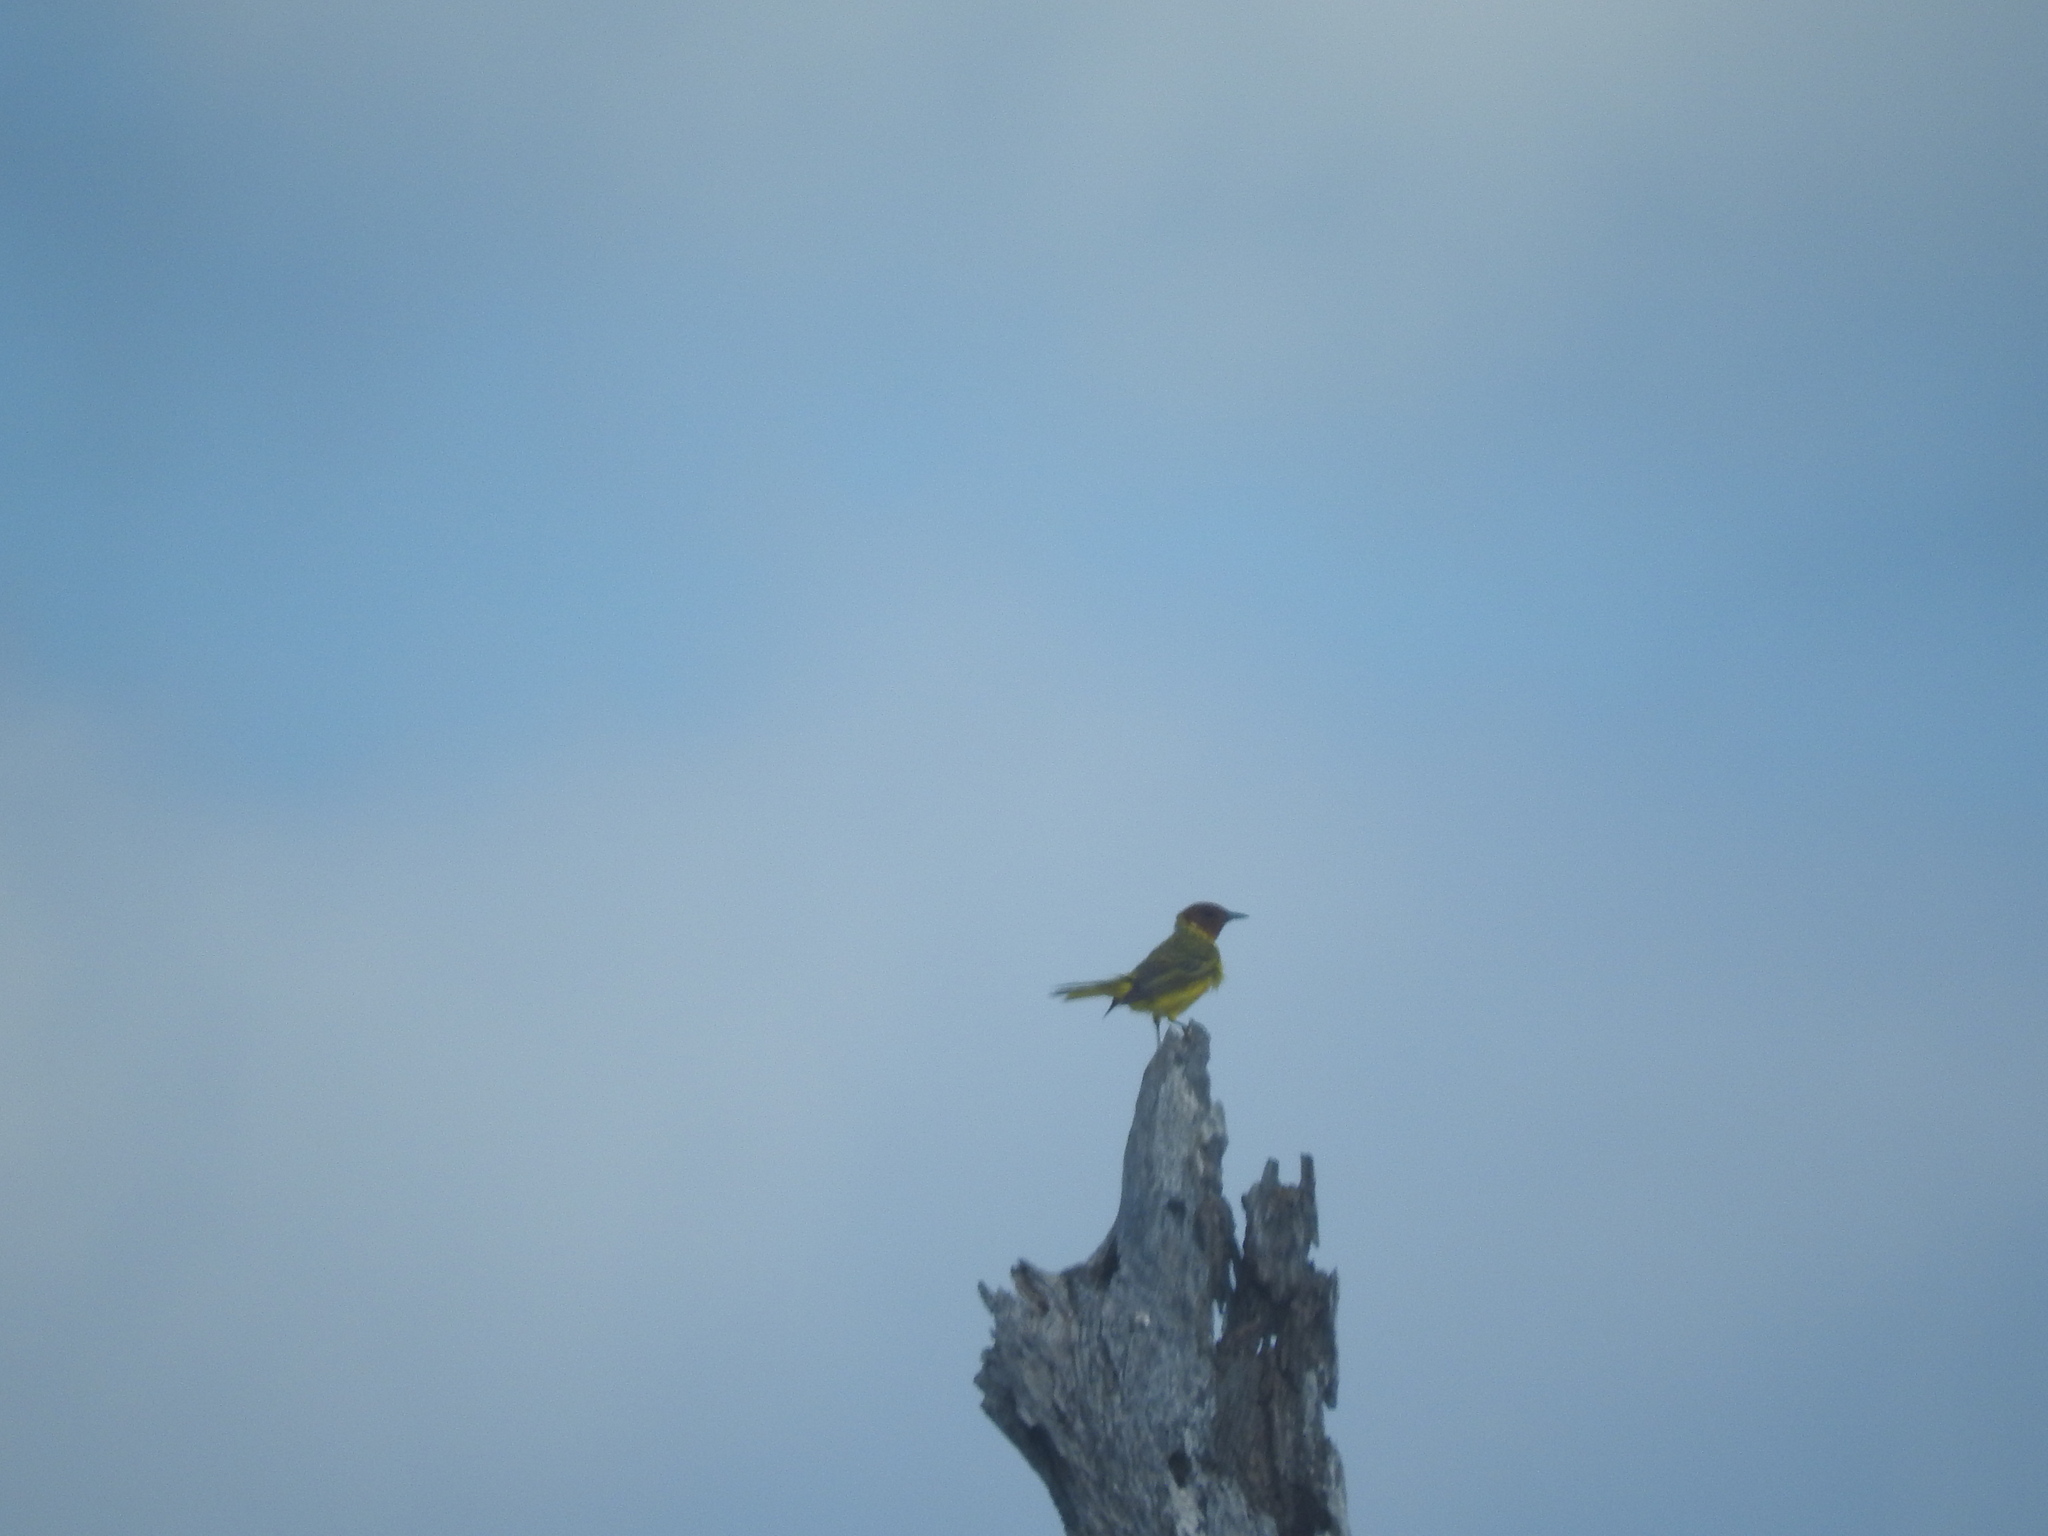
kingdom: Animalia
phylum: Chordata
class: Aves
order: Passeriformes
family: Parulidae
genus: Setophaga
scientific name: Setophaga petechia
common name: Yellow warbler
